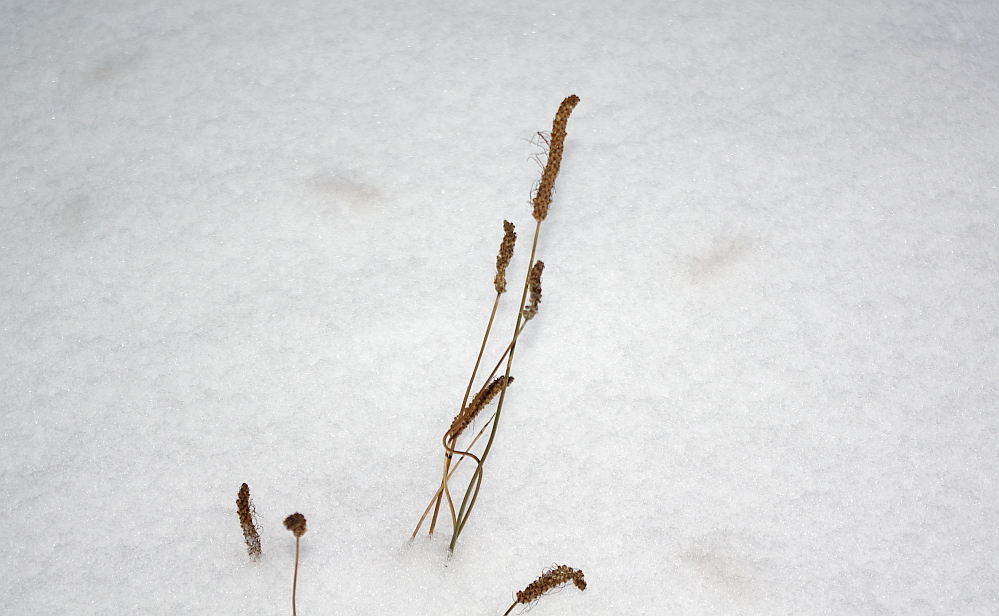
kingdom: Plantae
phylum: Tracheophyta
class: Magnoliopsida
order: Lamiales
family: Plantaginaceae
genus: Plantago
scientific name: Plantago lanceolata
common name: Ribwort plantain
